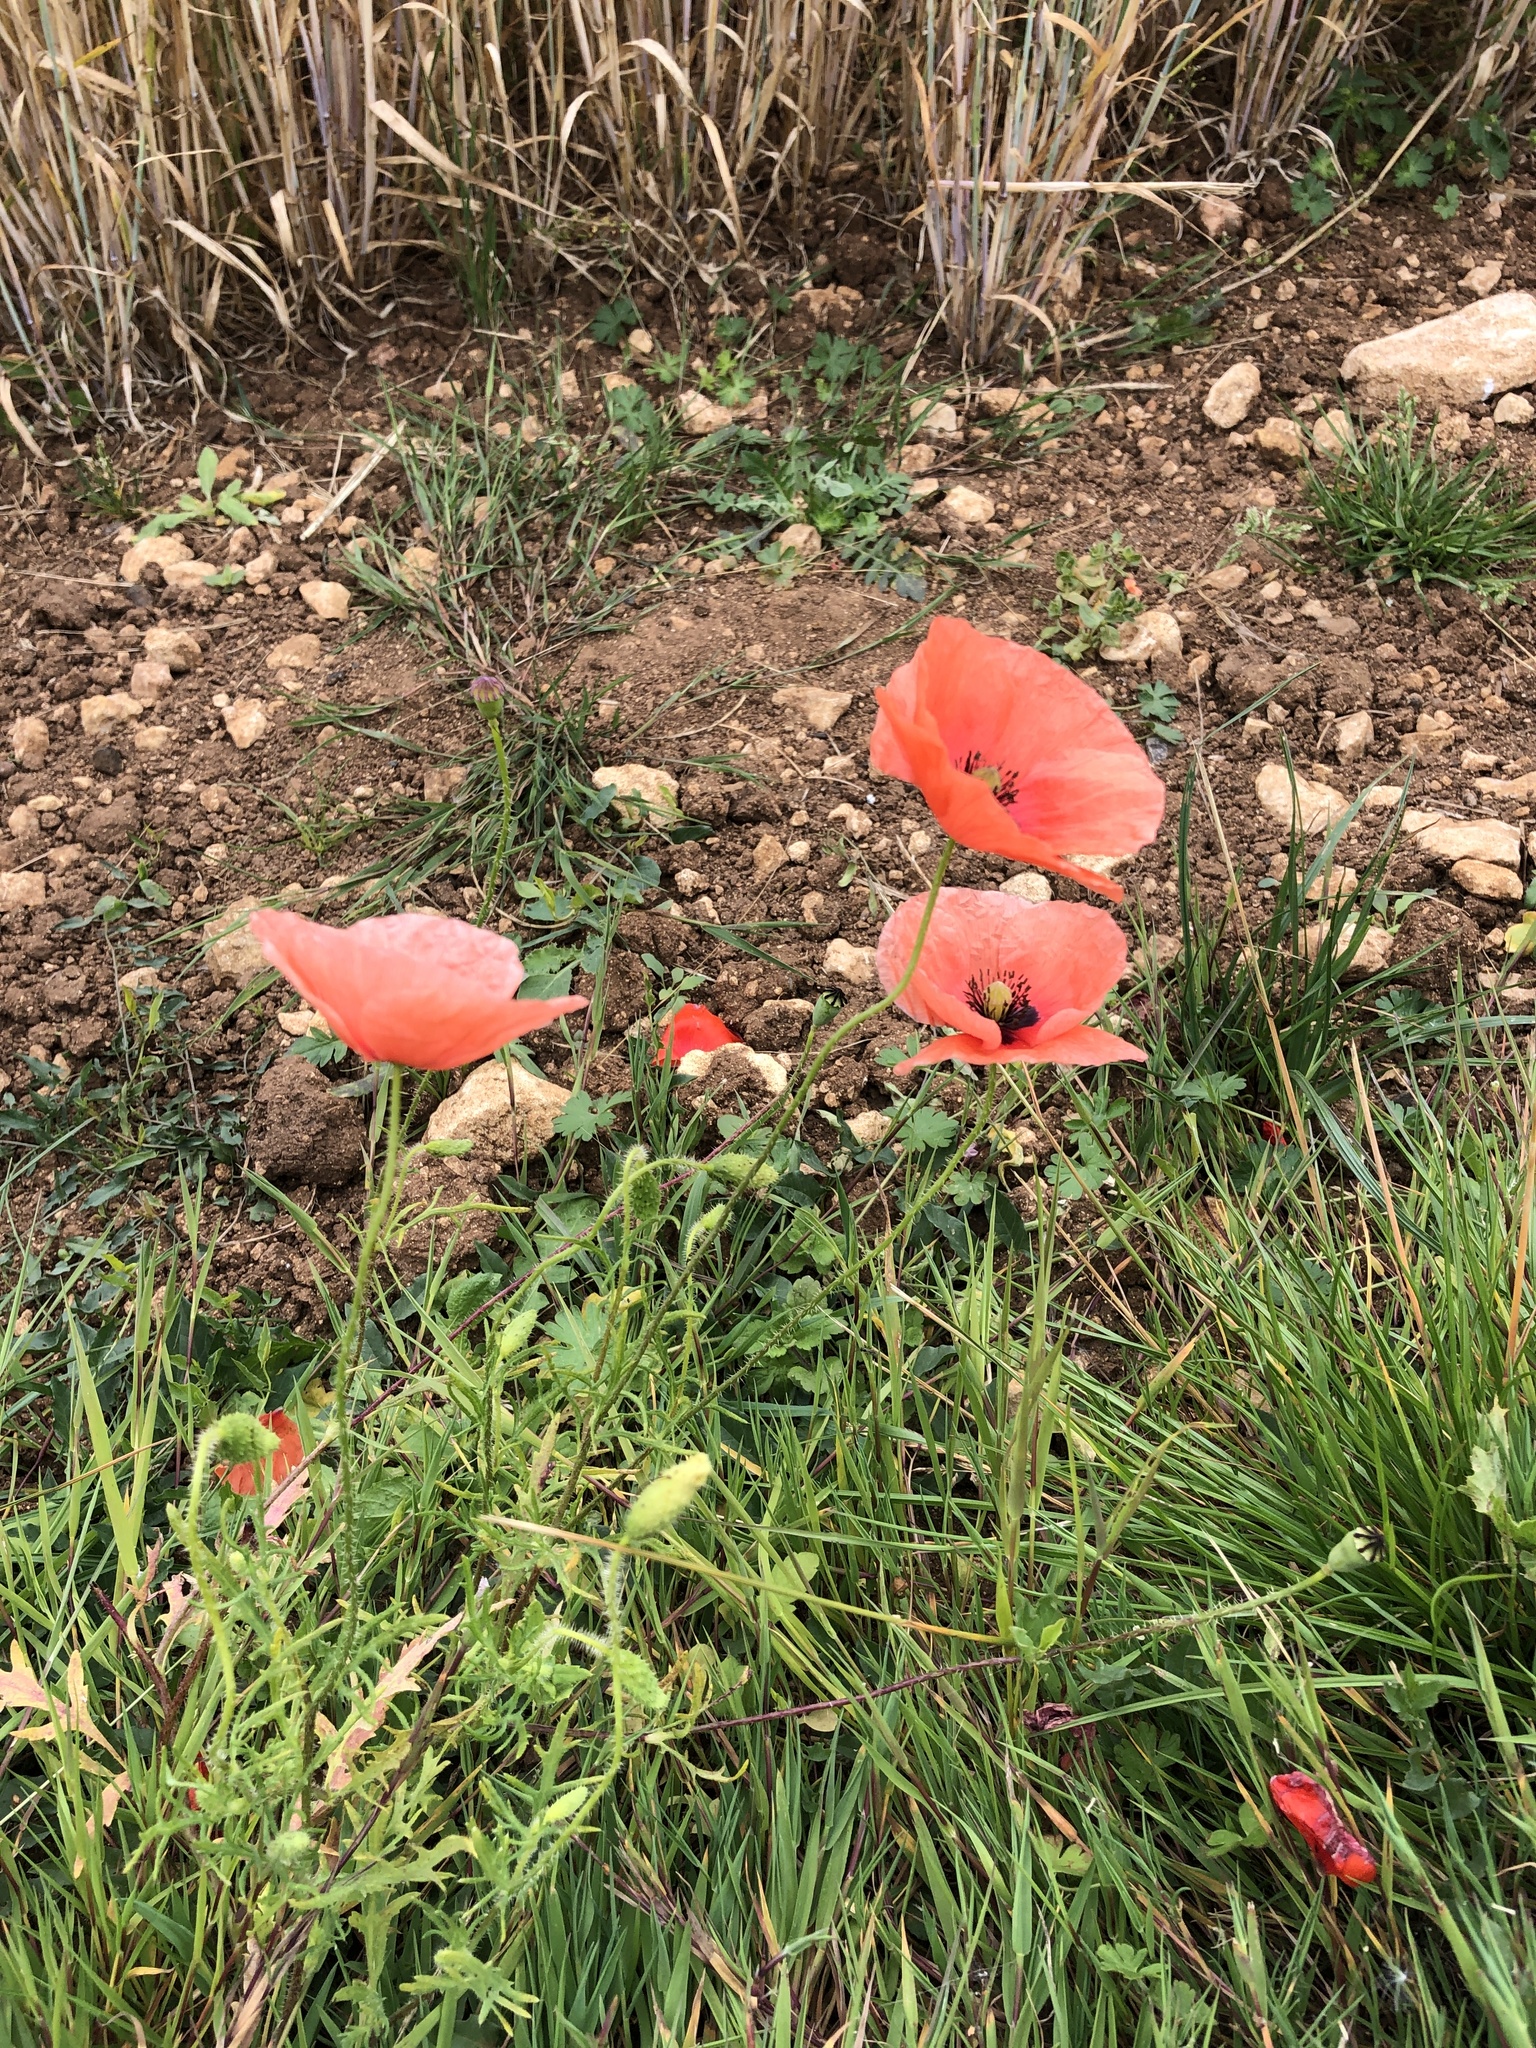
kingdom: Plantae
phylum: Tracheophyta
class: Magnoliopsida
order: Ranunculales
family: Papaveraceae
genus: Papaver
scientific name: Papaver rhoeas
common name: Corn poppy
